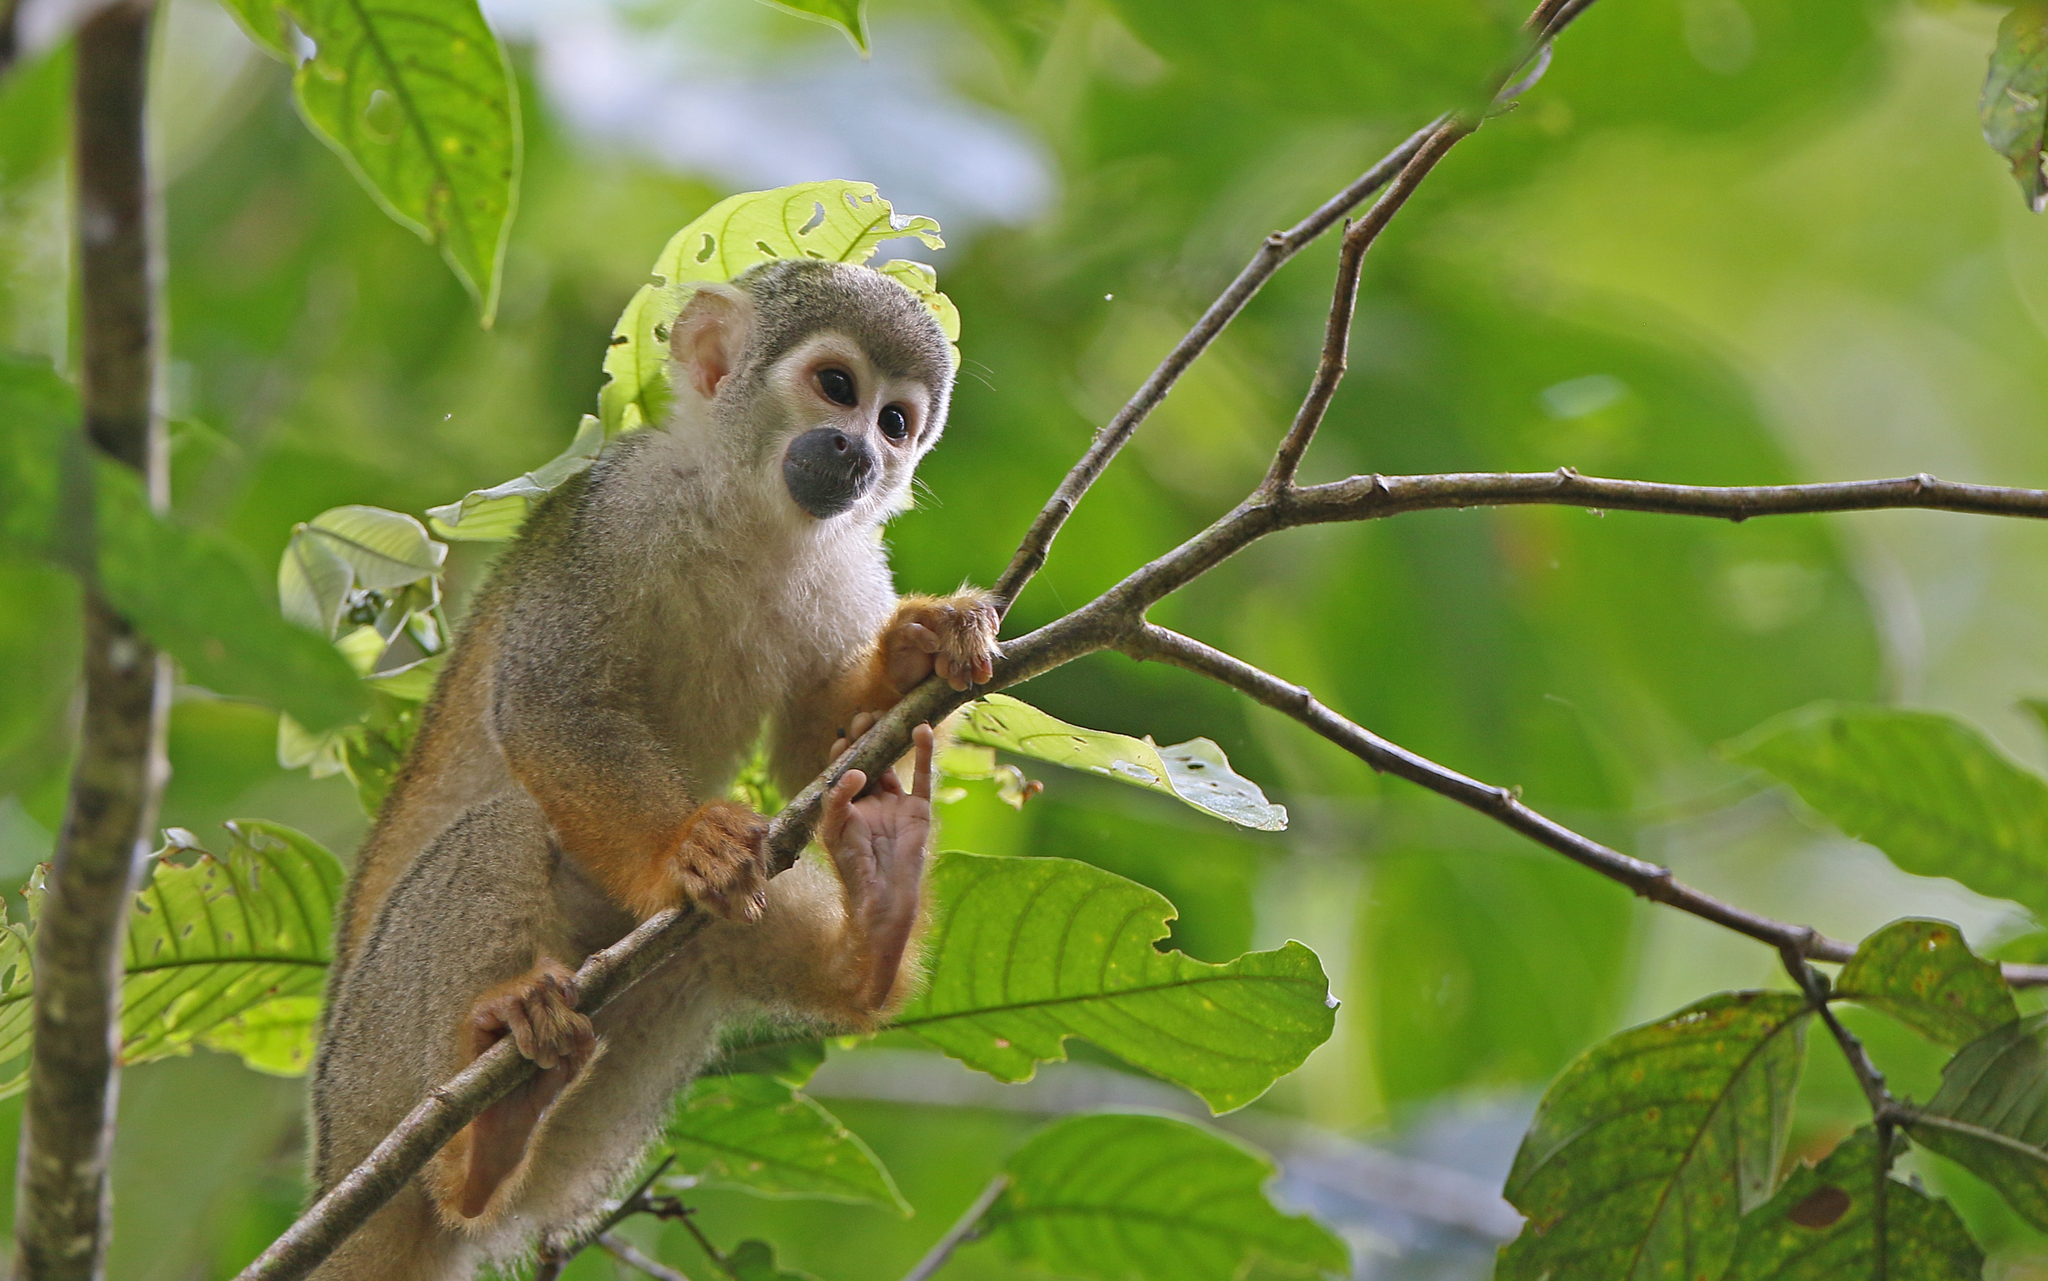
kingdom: Animalia
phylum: Chordata
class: Mammalia
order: Primates
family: Cebidae
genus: Saimiri
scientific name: Saimiri cassiquiarensis
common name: Humboldt’s squirrel monkey
